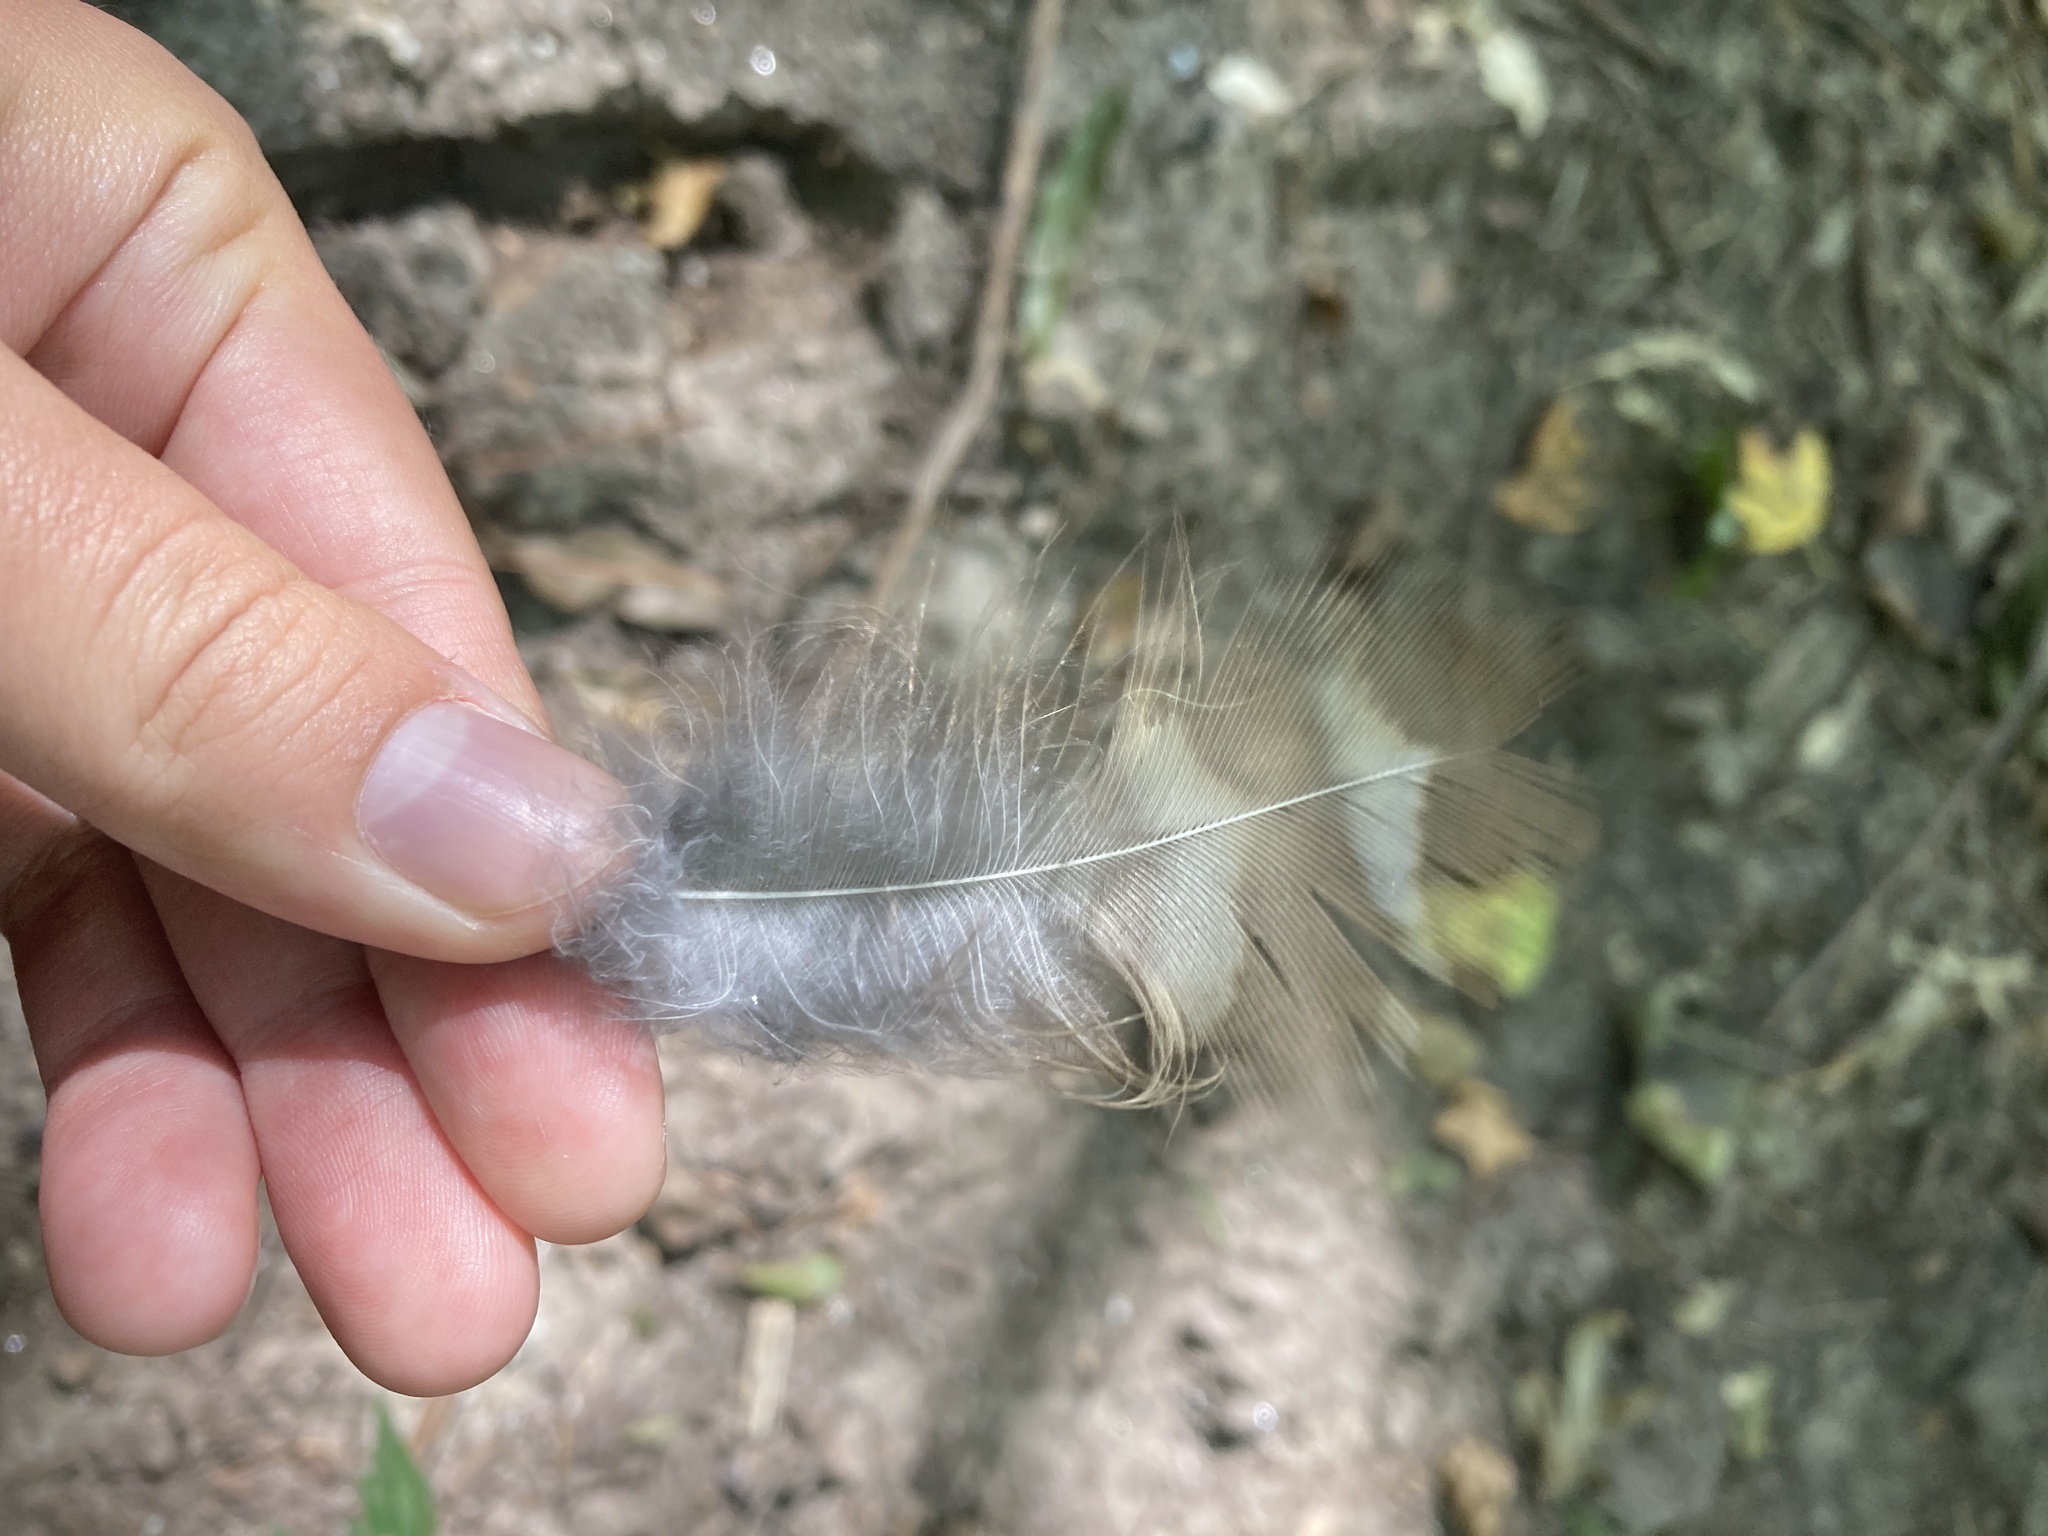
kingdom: Animalia
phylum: Chordata
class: Aves
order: Strigiformes
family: Strigidae
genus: Strix
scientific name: Strix varia
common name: Barred owl
